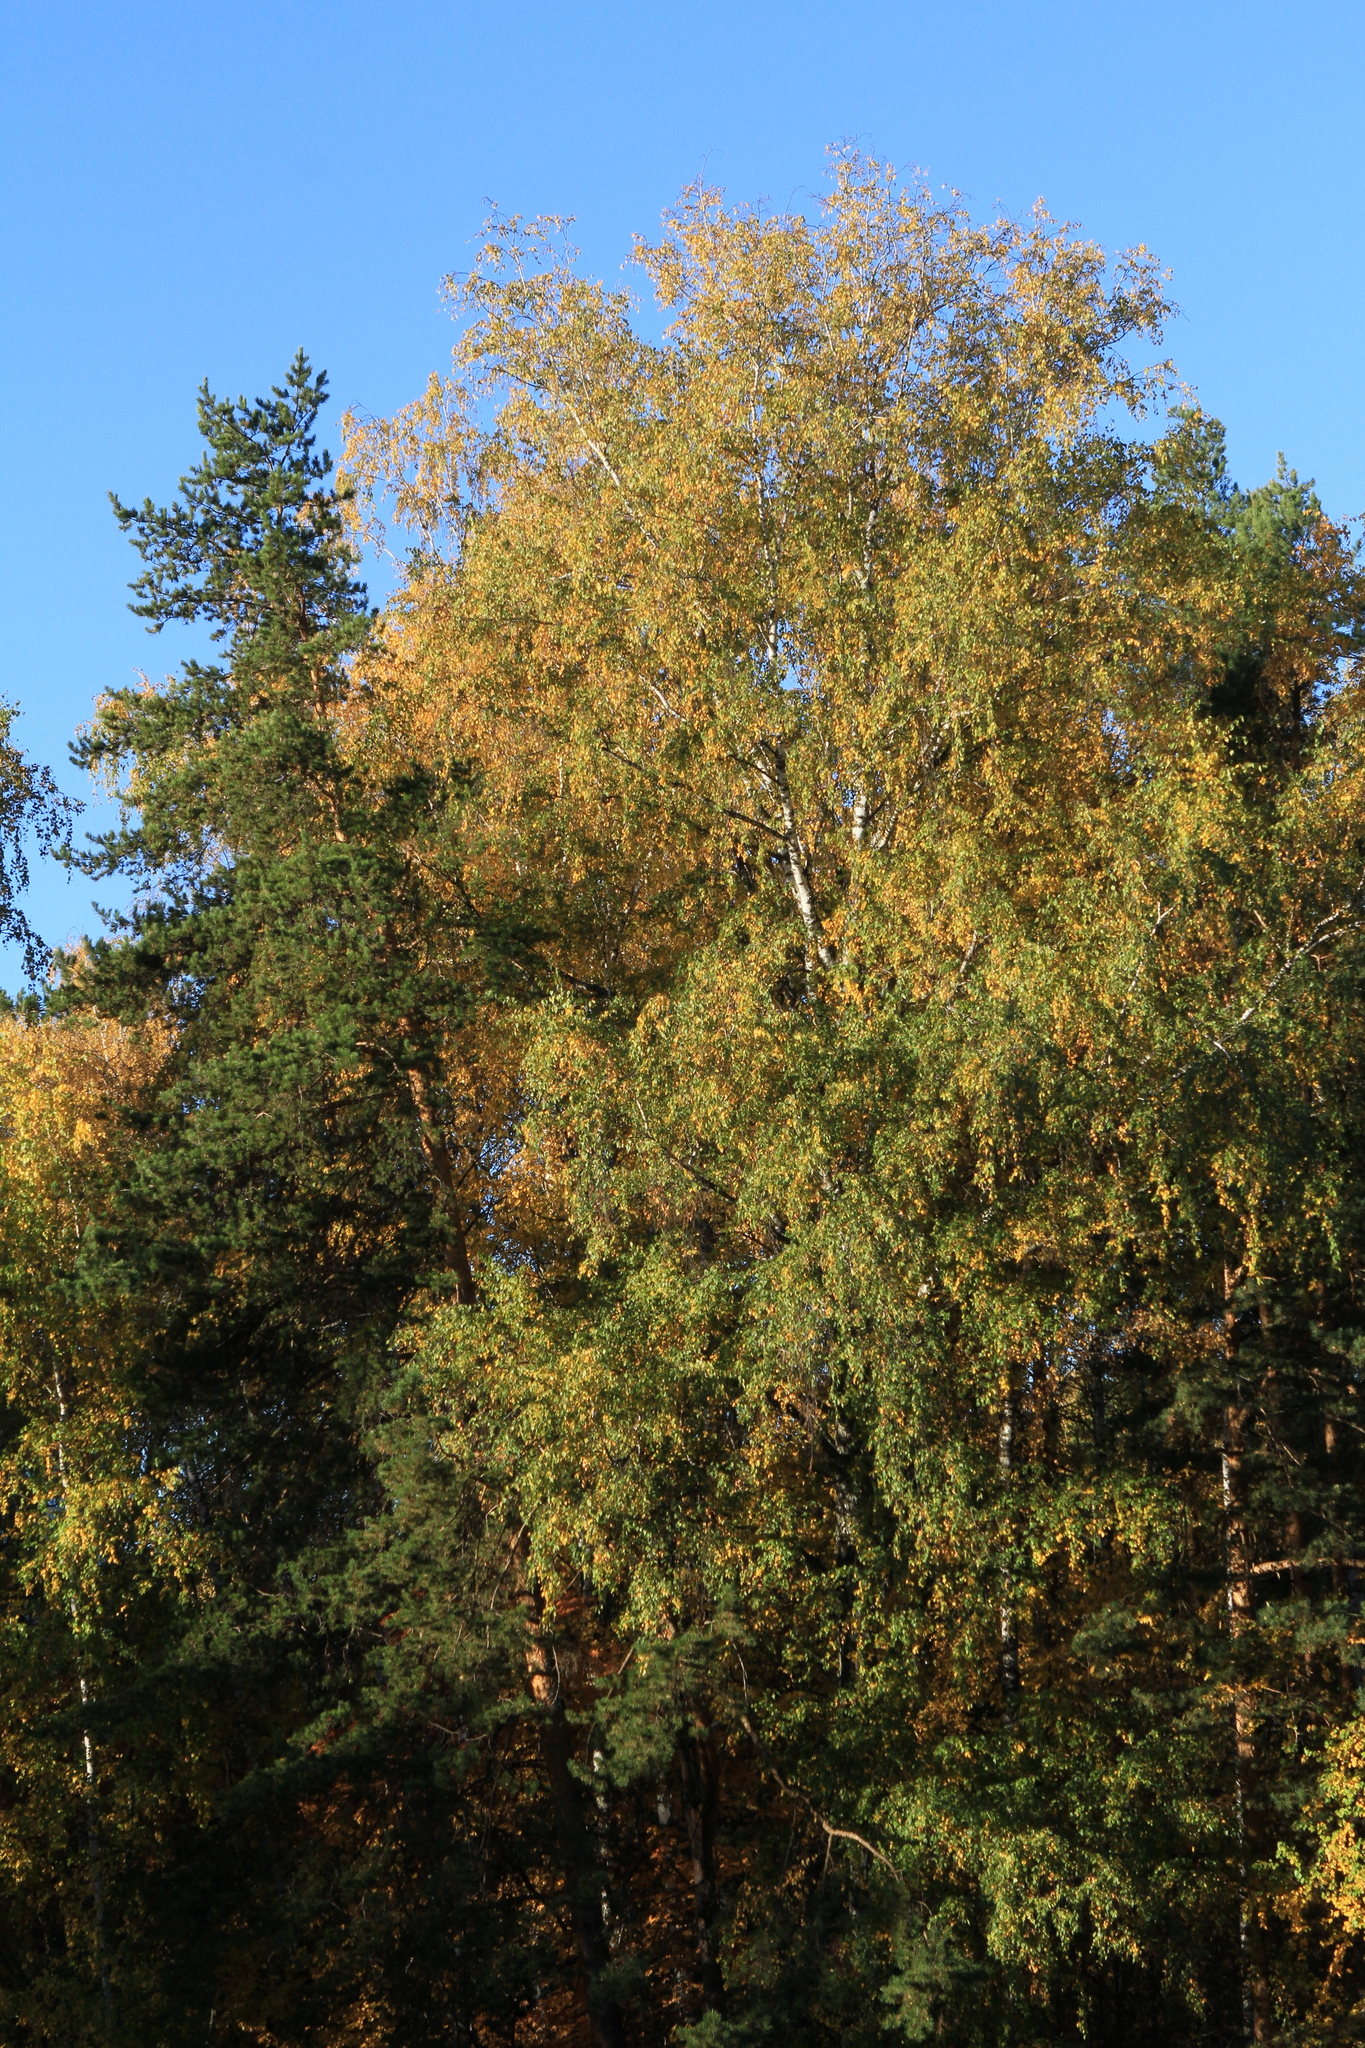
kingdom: Plantae
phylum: Tracheophyta
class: Pinopsida
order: Pinales
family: Pinaceae
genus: Pinus
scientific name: Pinus sylvestris
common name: Scots pine
